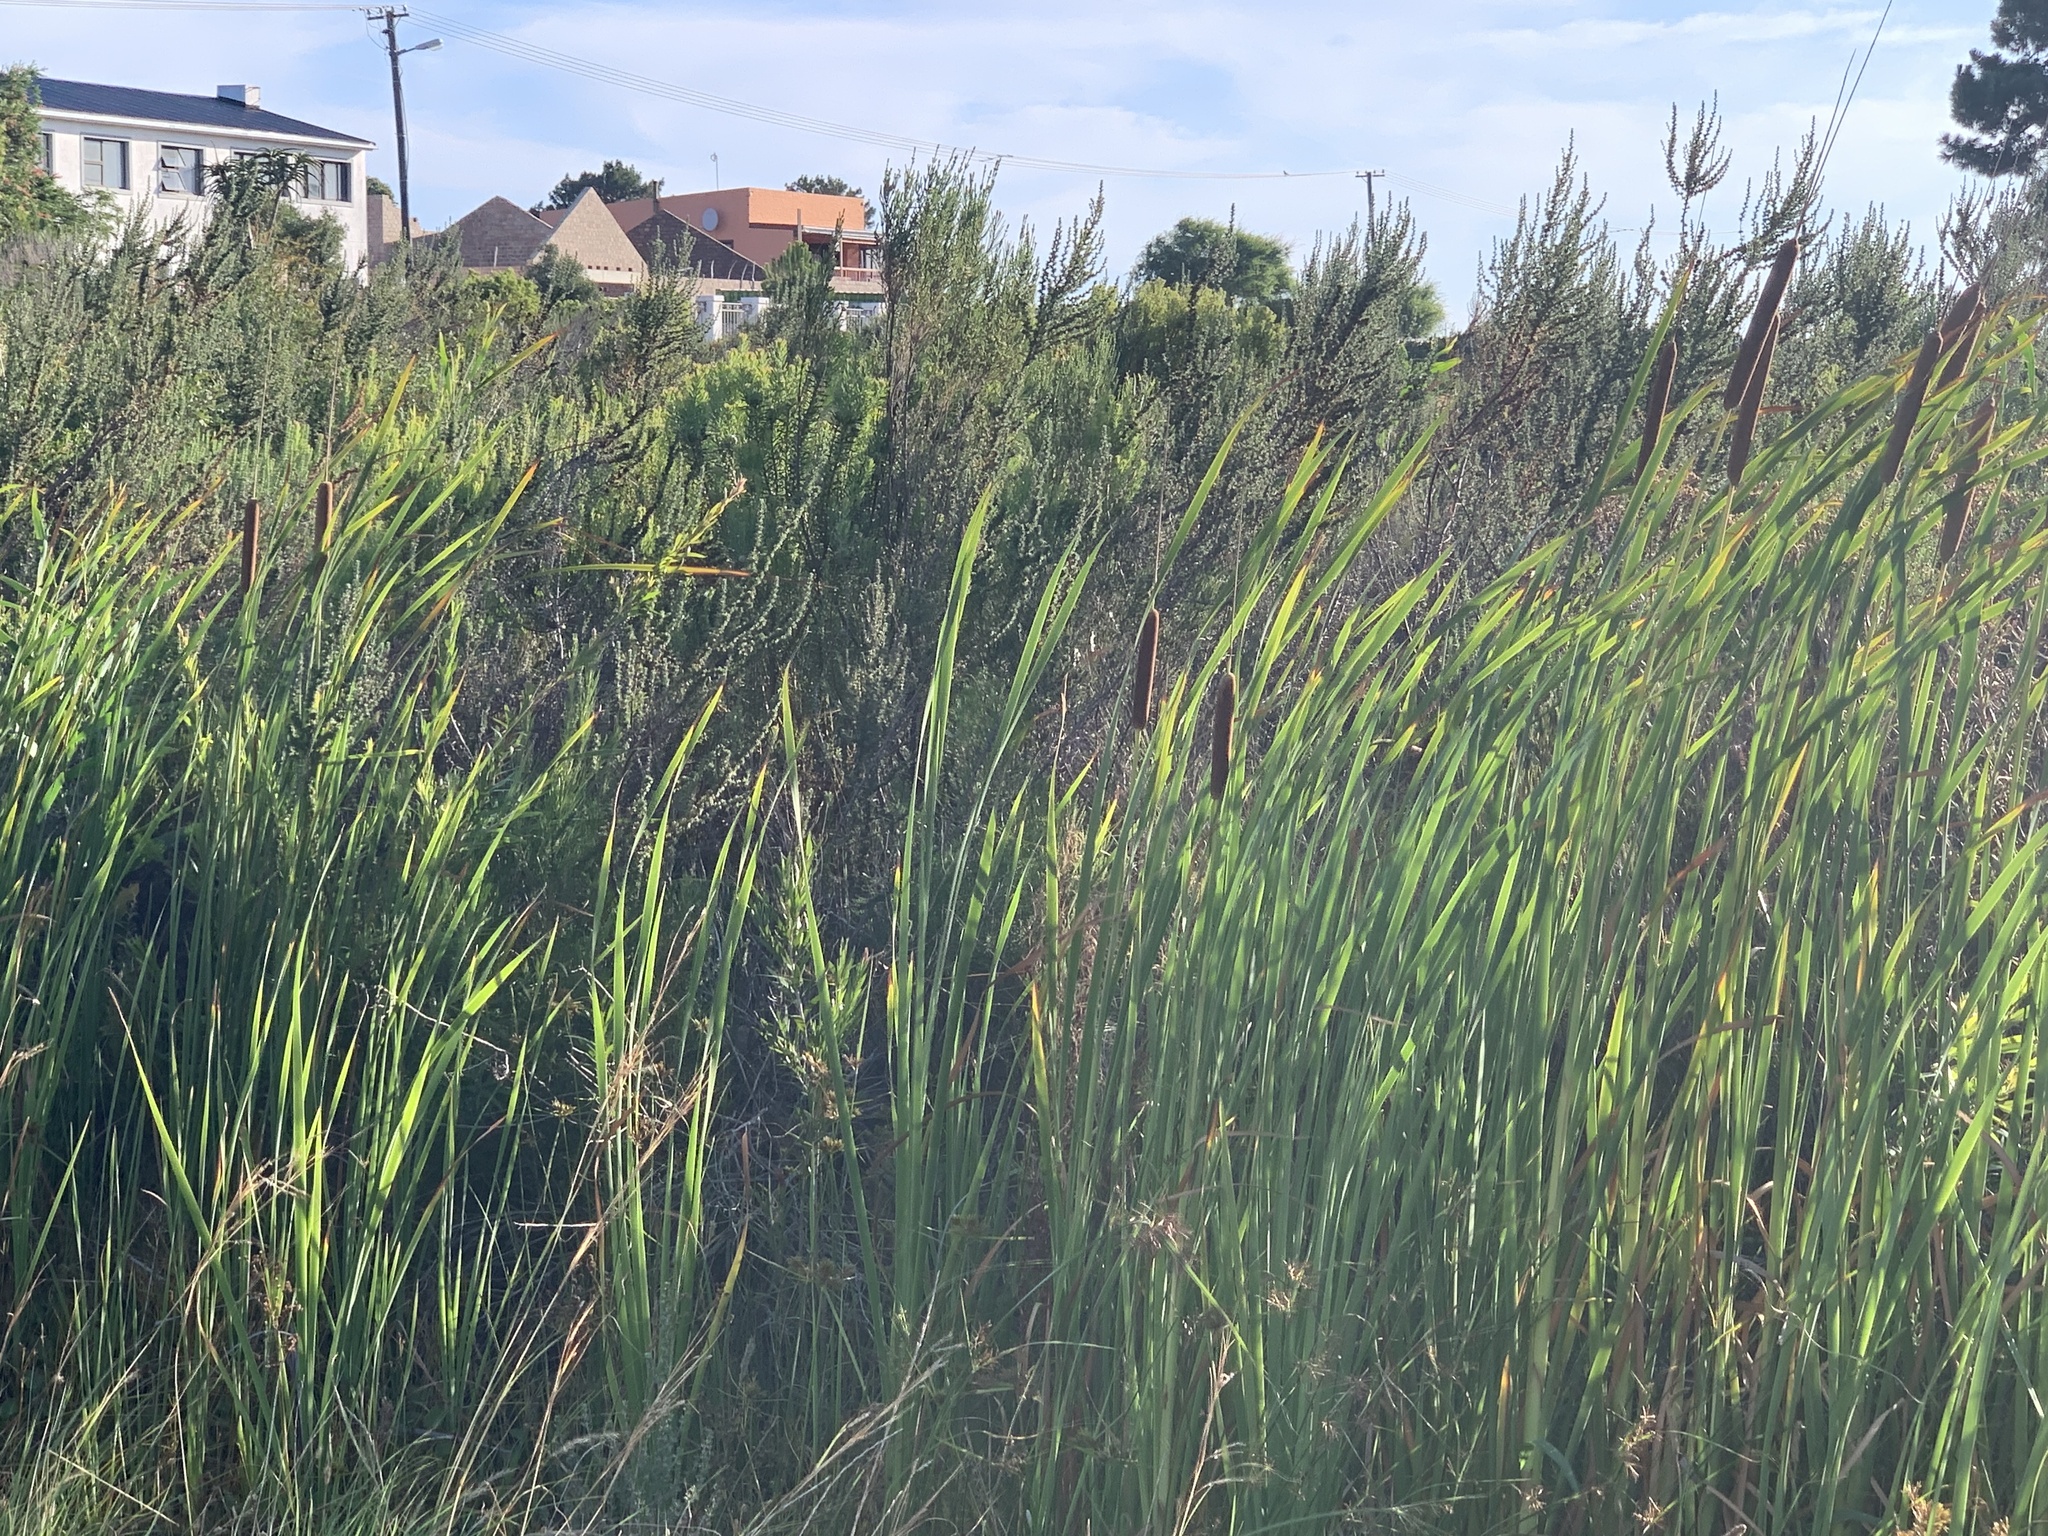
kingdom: Plantae
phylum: Tracheophyta
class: Liliopsida
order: Poales
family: Typhaceae
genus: Typha
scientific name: Typha capensis
